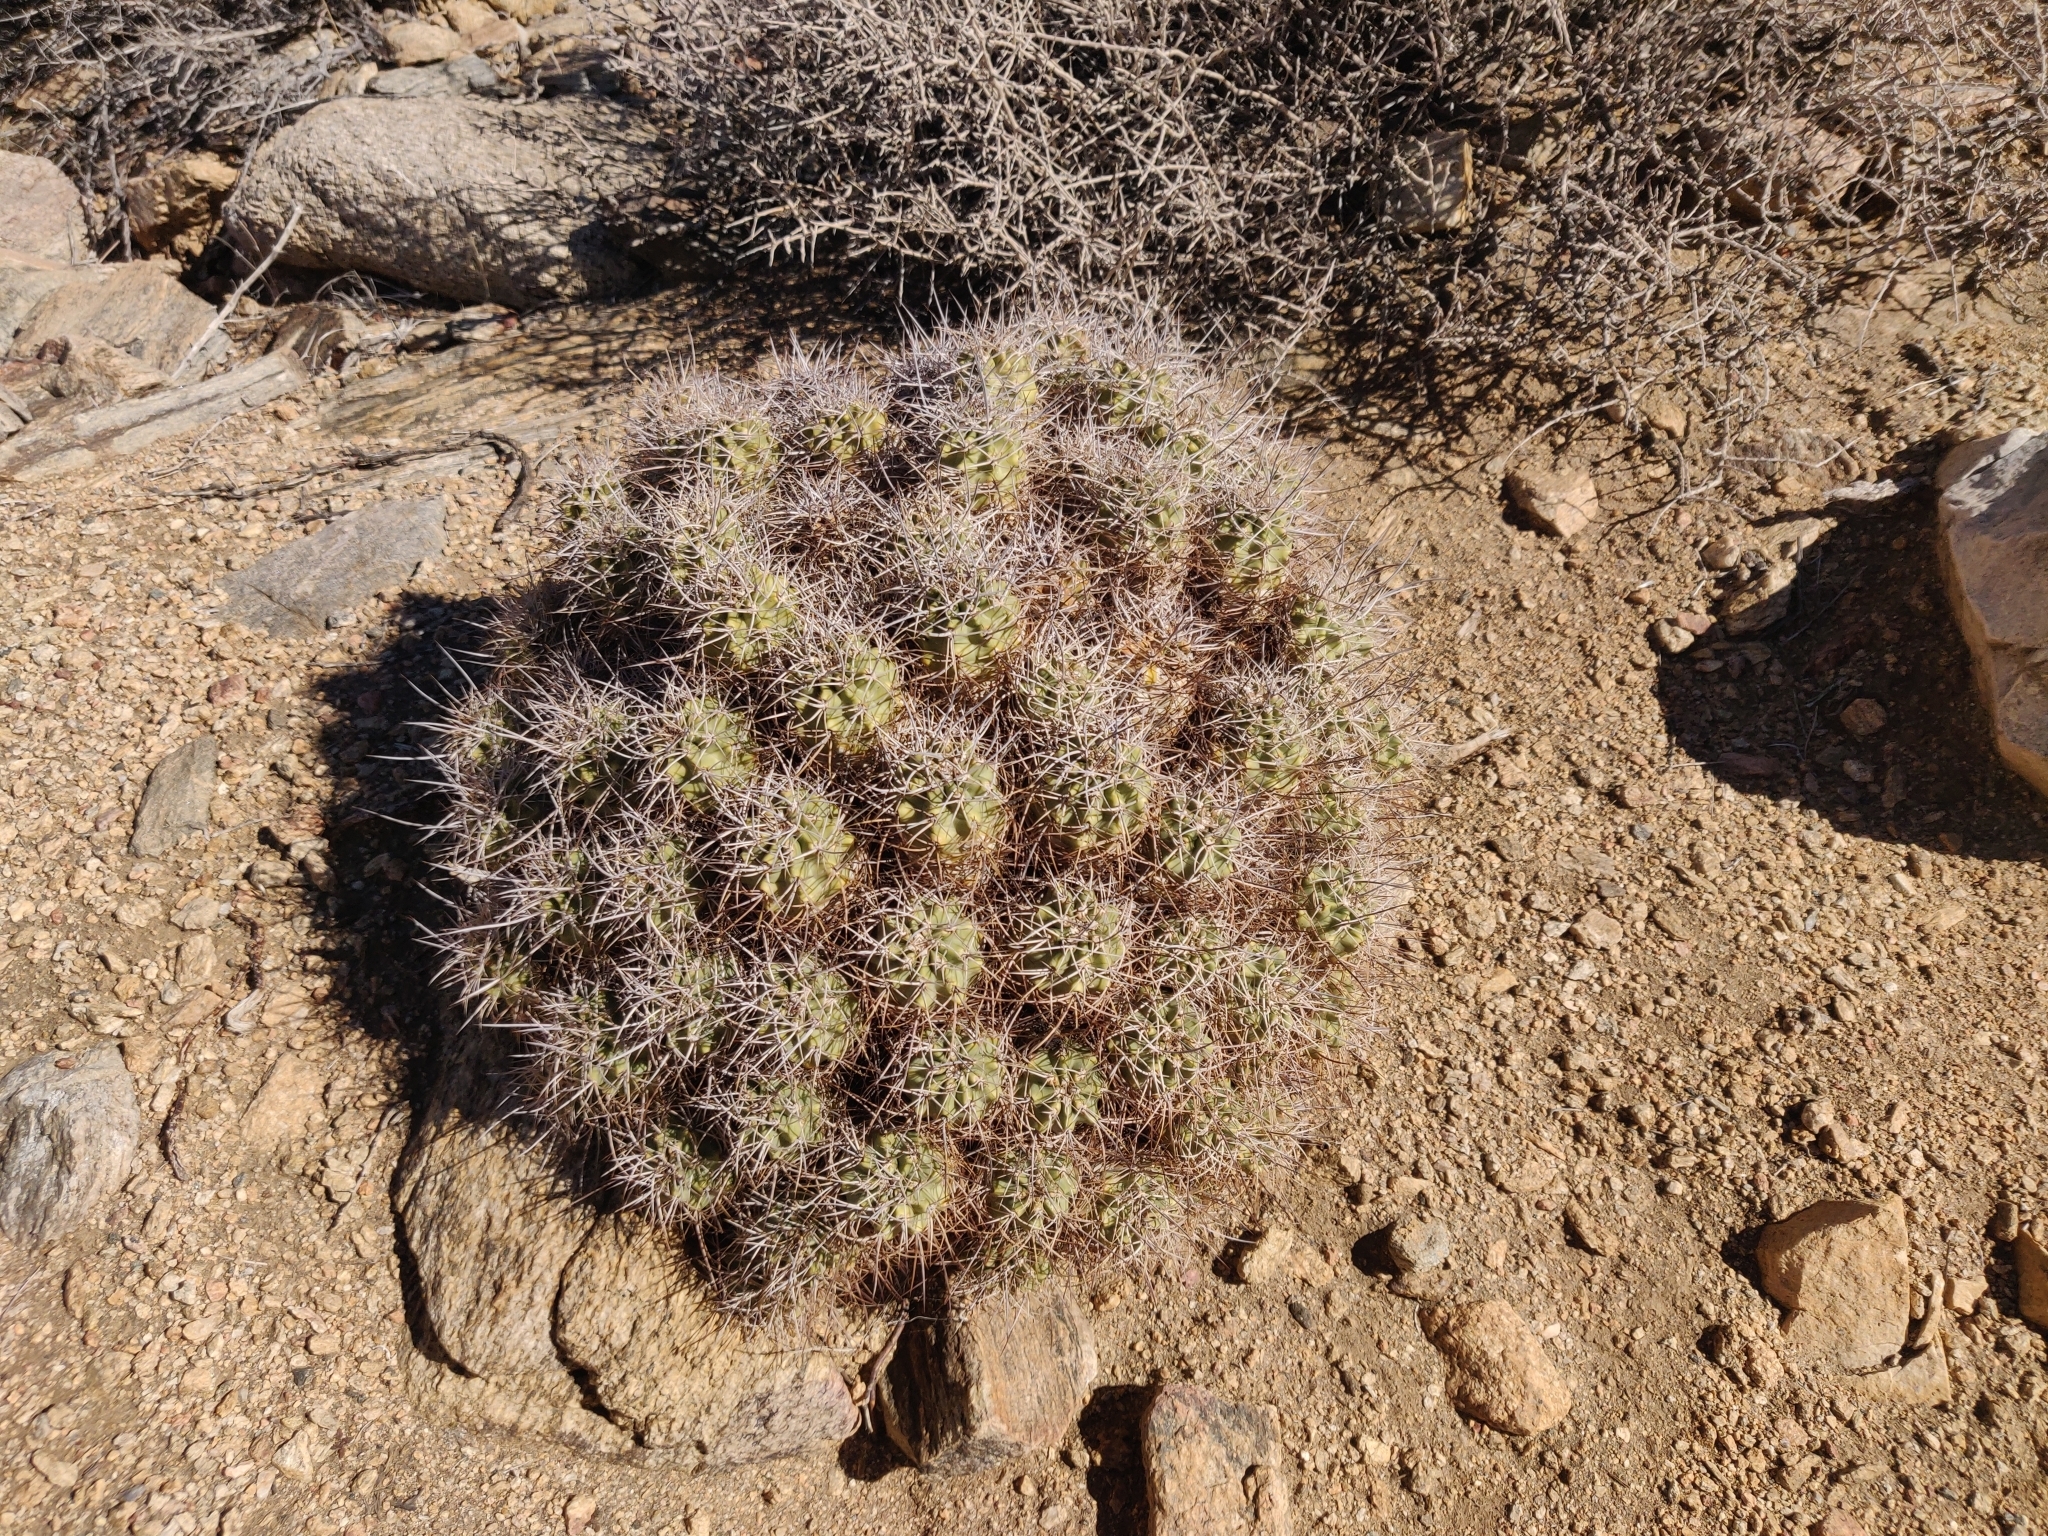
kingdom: Plantae
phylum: Tracheophyta
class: Magnoliopsida
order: Caryophyllales
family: Cactaceae
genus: Echinocereus
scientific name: Echinocereus triglochidiatus
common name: Claretcup hedgehog
